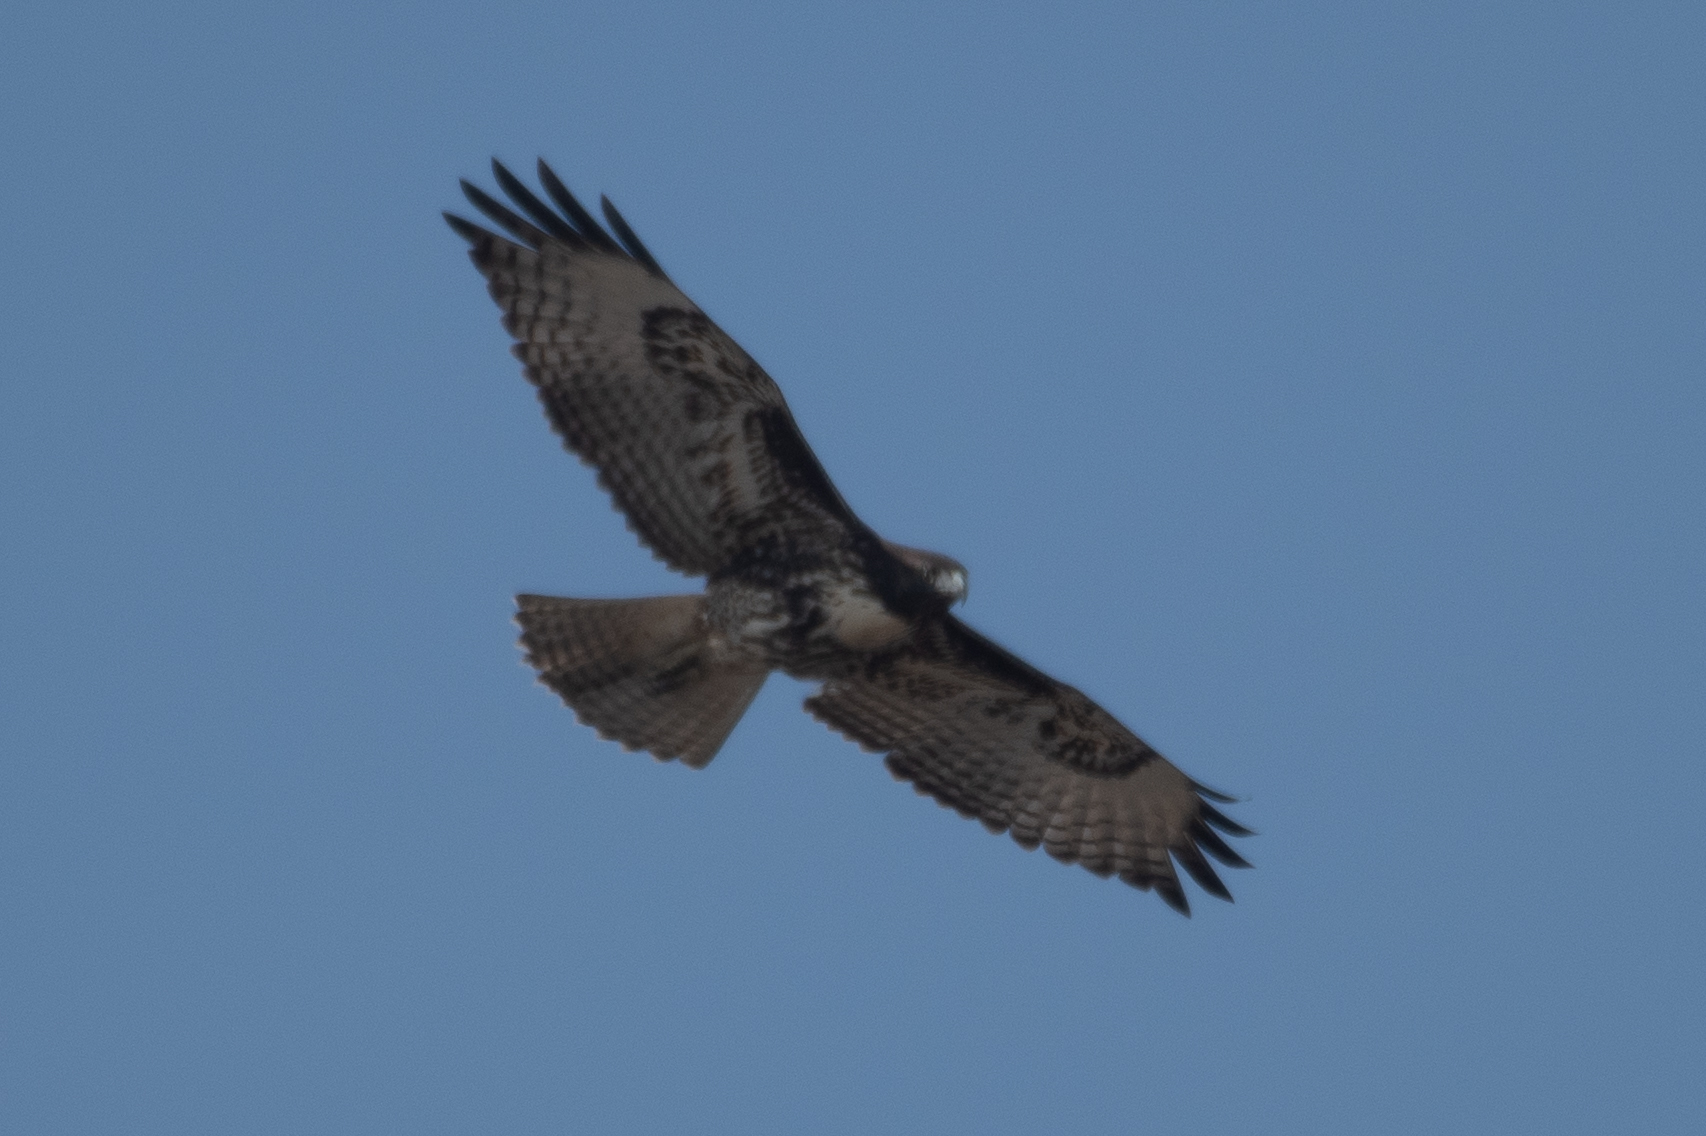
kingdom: Animalia
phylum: Chordata
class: Aves
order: Accipitriformes
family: Accipitridae
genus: Buteo
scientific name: Buteo jamaicensis
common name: Red-tailed hawk
